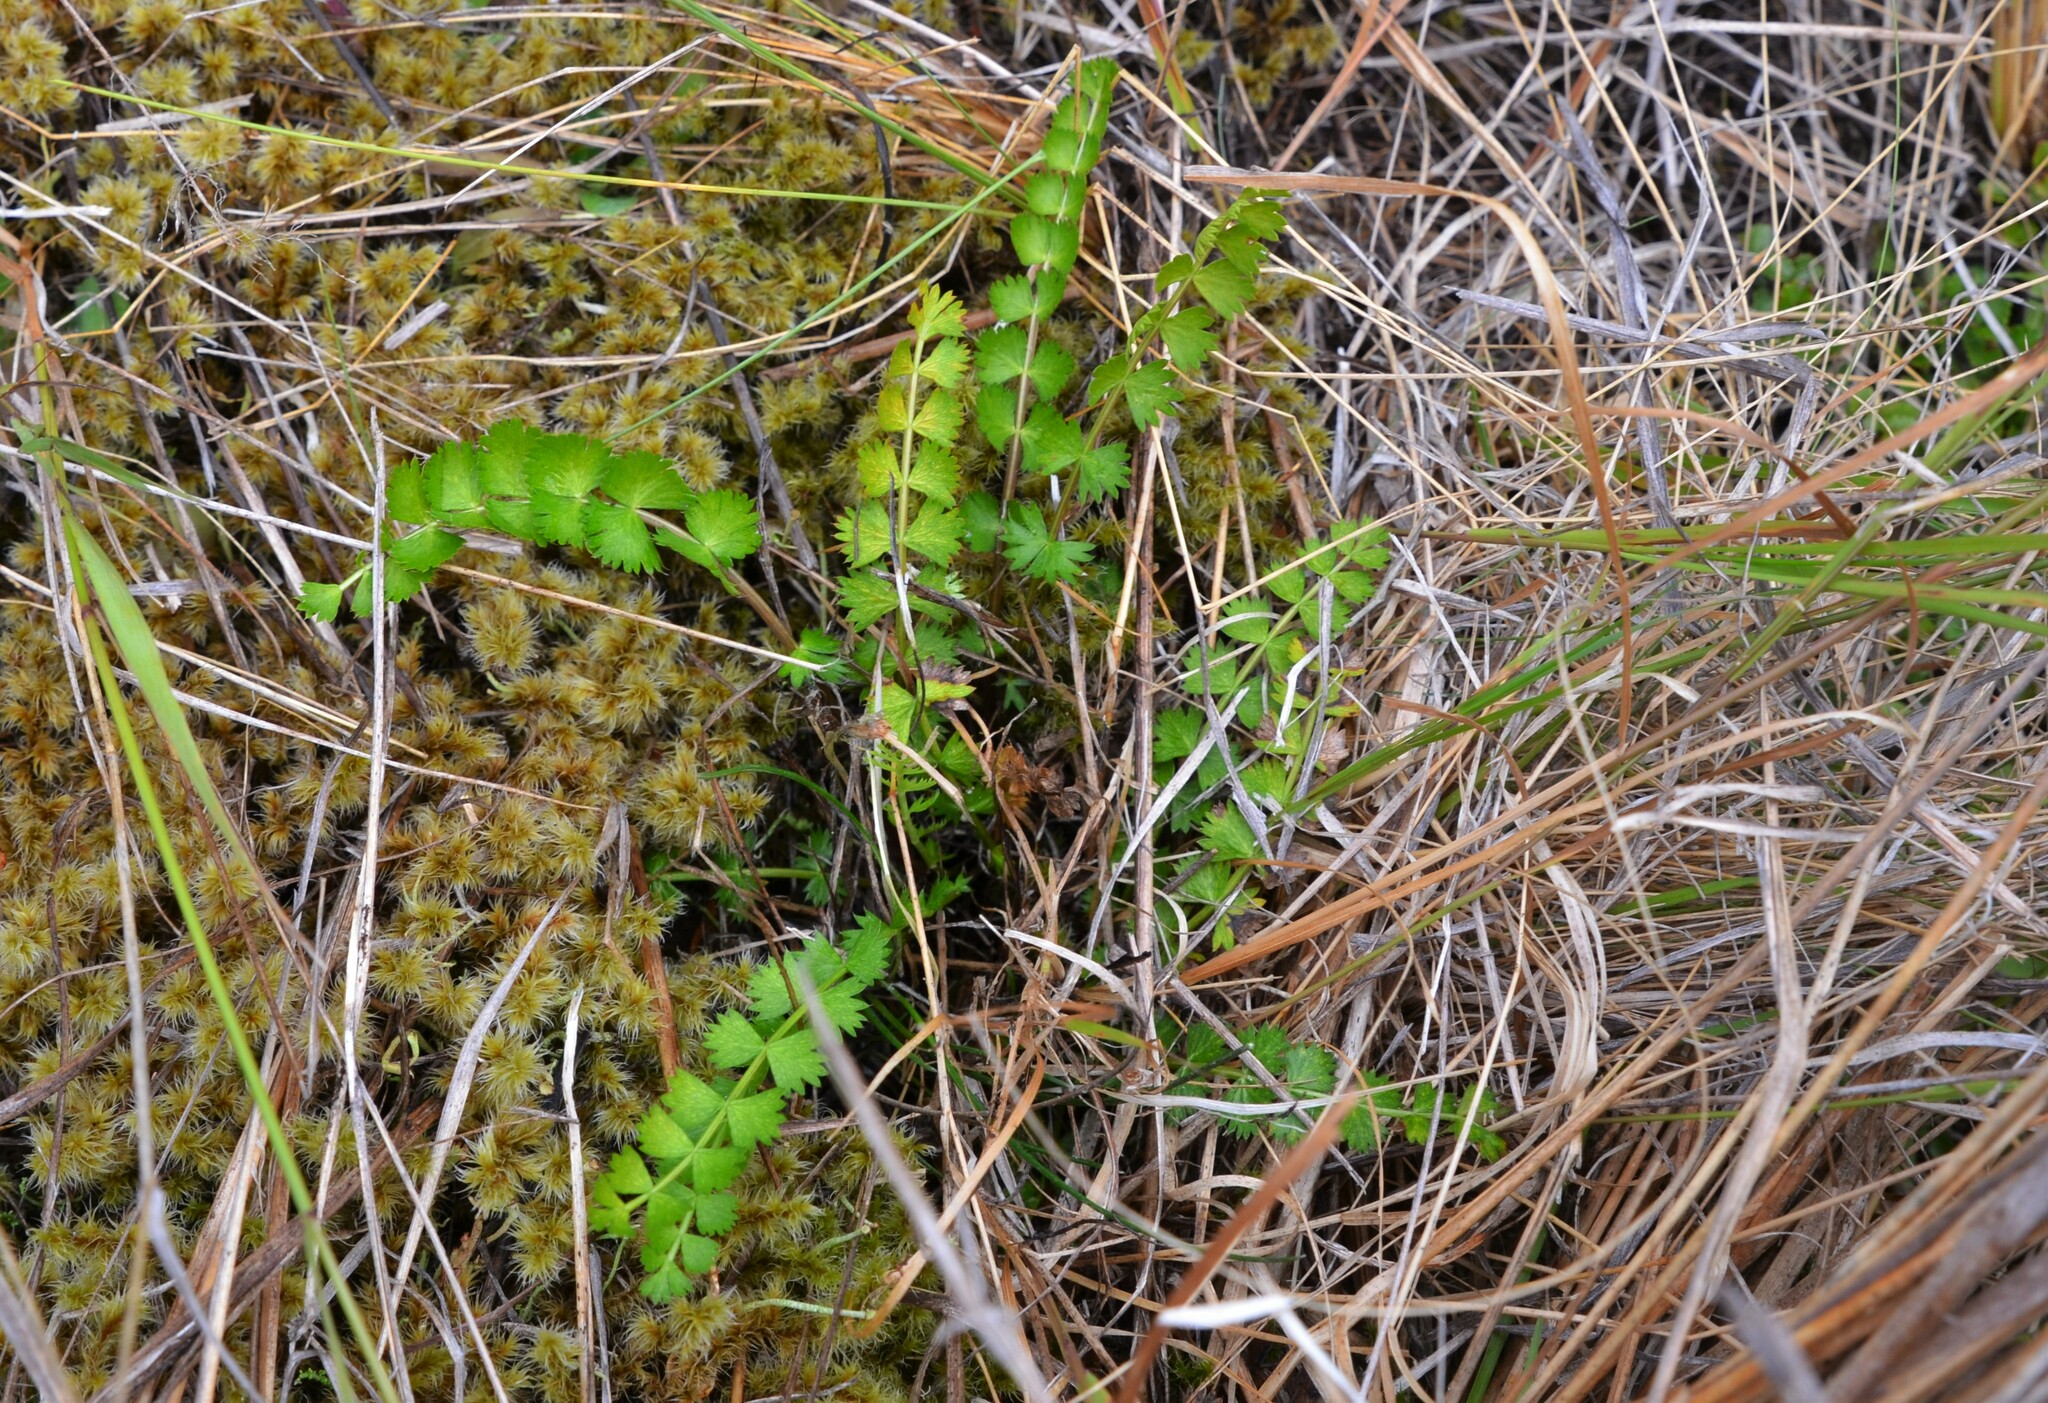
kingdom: Plantae
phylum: Tracheophyta
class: Magnoliopsida
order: Apiales
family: Apiaceae
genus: Anisotome
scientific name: Anisotome aromatica
